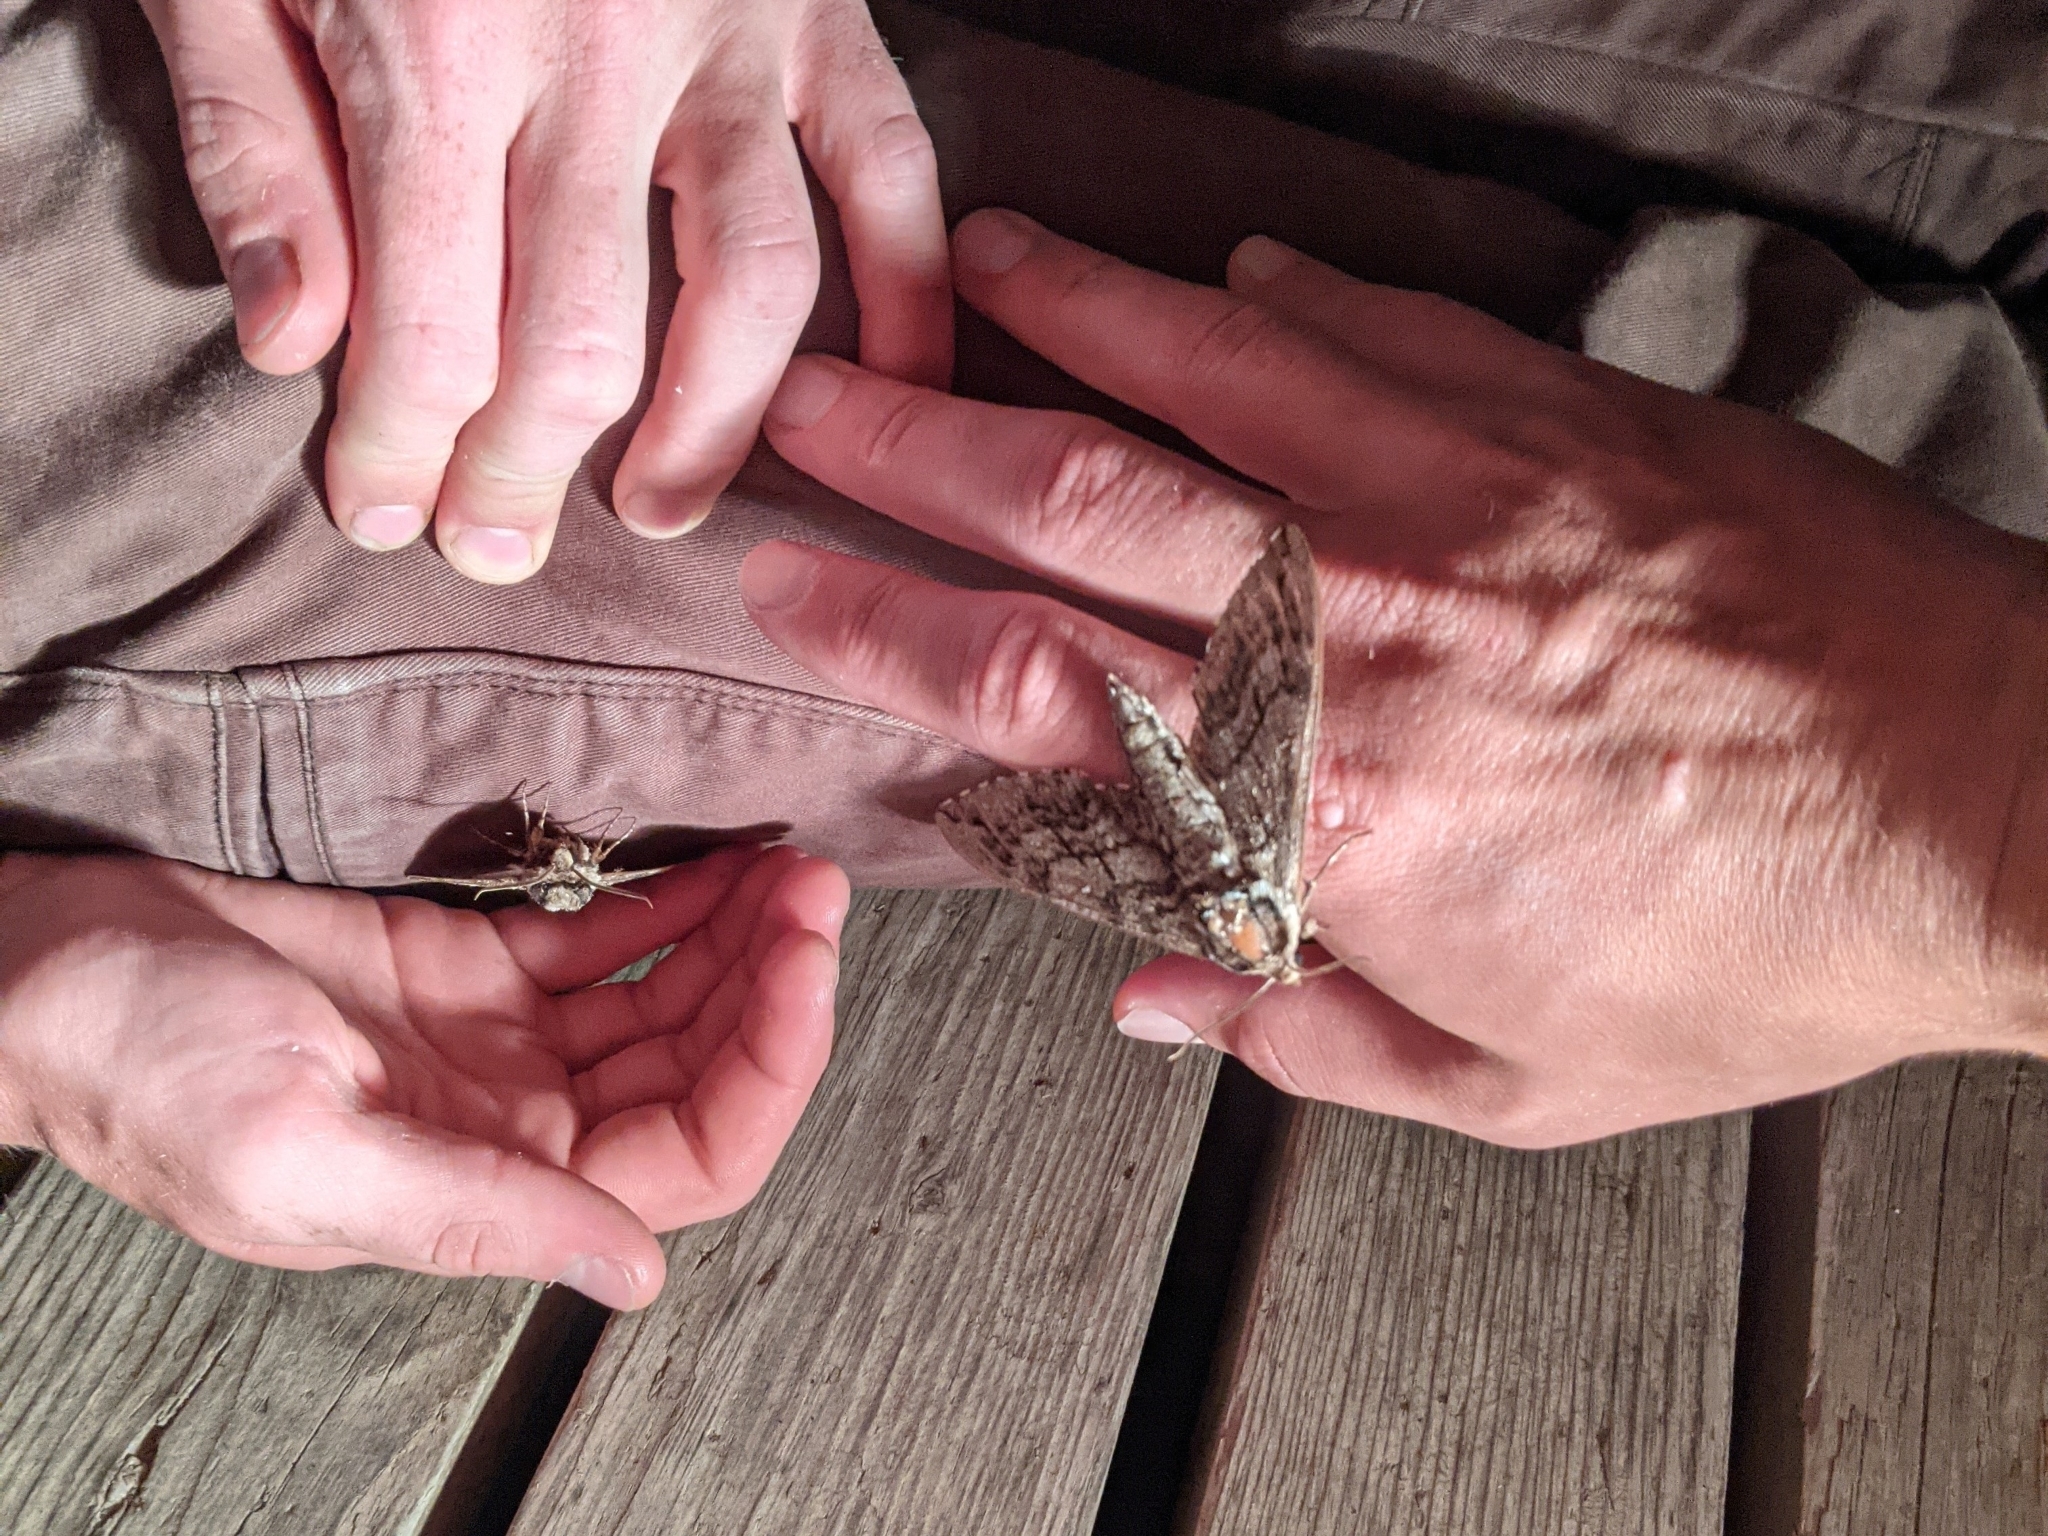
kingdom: Animalia
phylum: Arthropoda
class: Insecta
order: Lepidoptera
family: Sphingidae
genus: Ceratomia
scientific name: Ceratomia undulosa
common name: Waved sphinx
